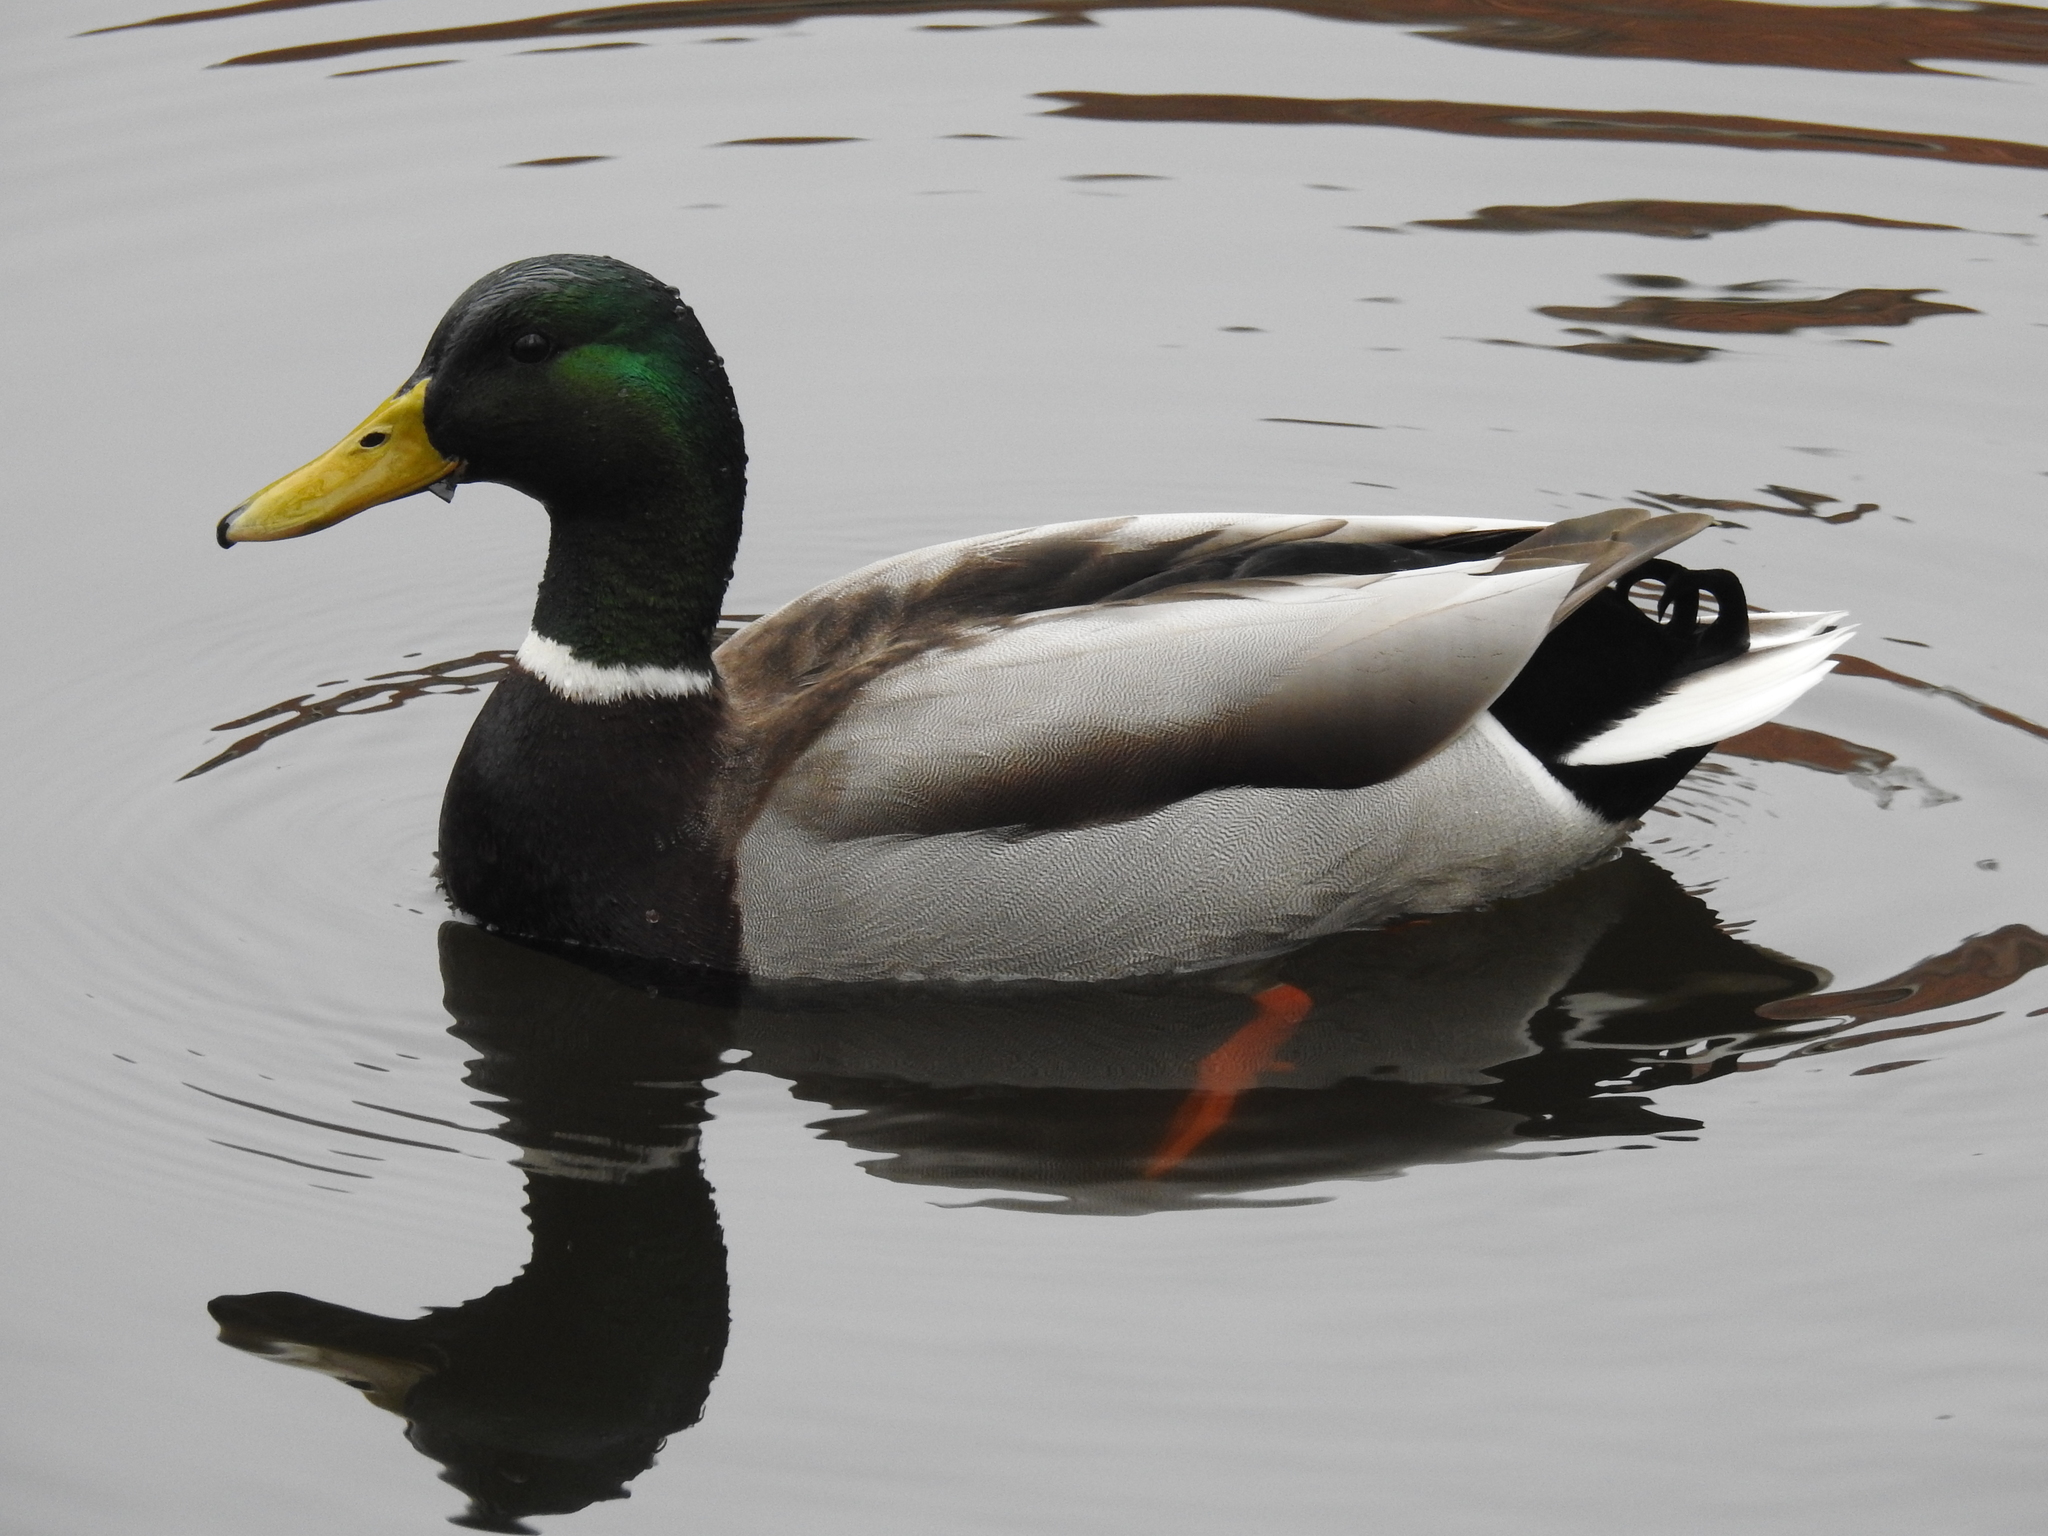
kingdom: Animalia
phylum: Chordata
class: Aves
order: Anseriformes
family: Anatidae
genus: Anas
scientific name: Anas platyrhynchos
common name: Mallard
